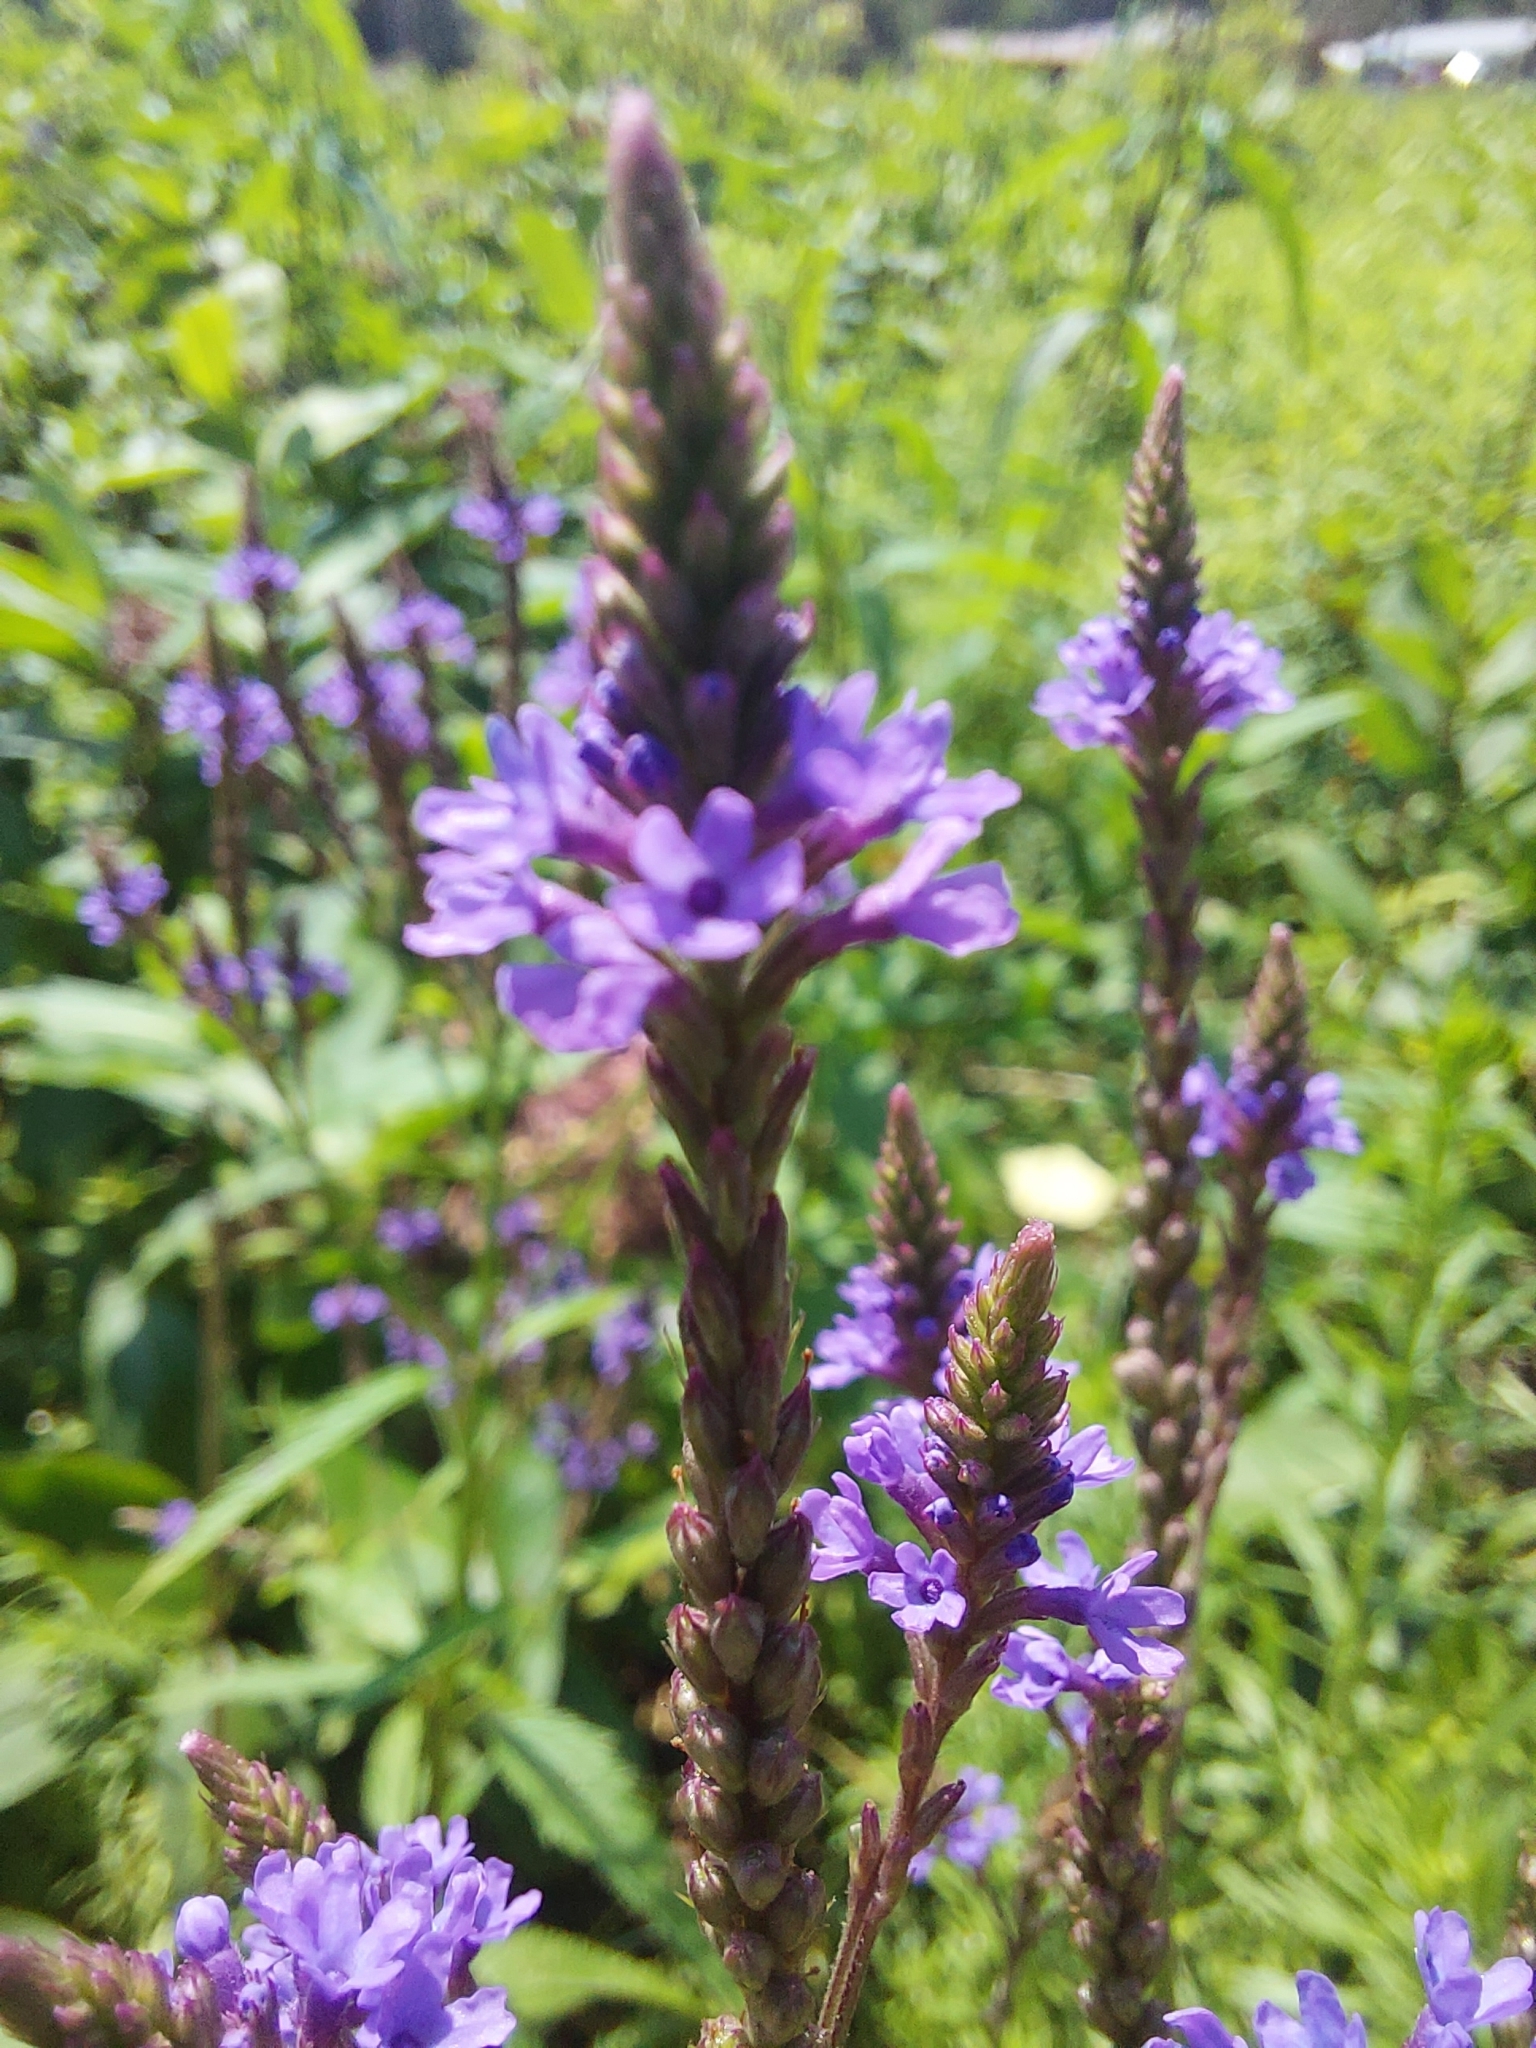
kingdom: Plantae
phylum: Tracheophyta
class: Magnoliopsida
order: Lamiales
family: Verbenaceae
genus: Verbena
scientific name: Verbena hastata
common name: American blue vervain
